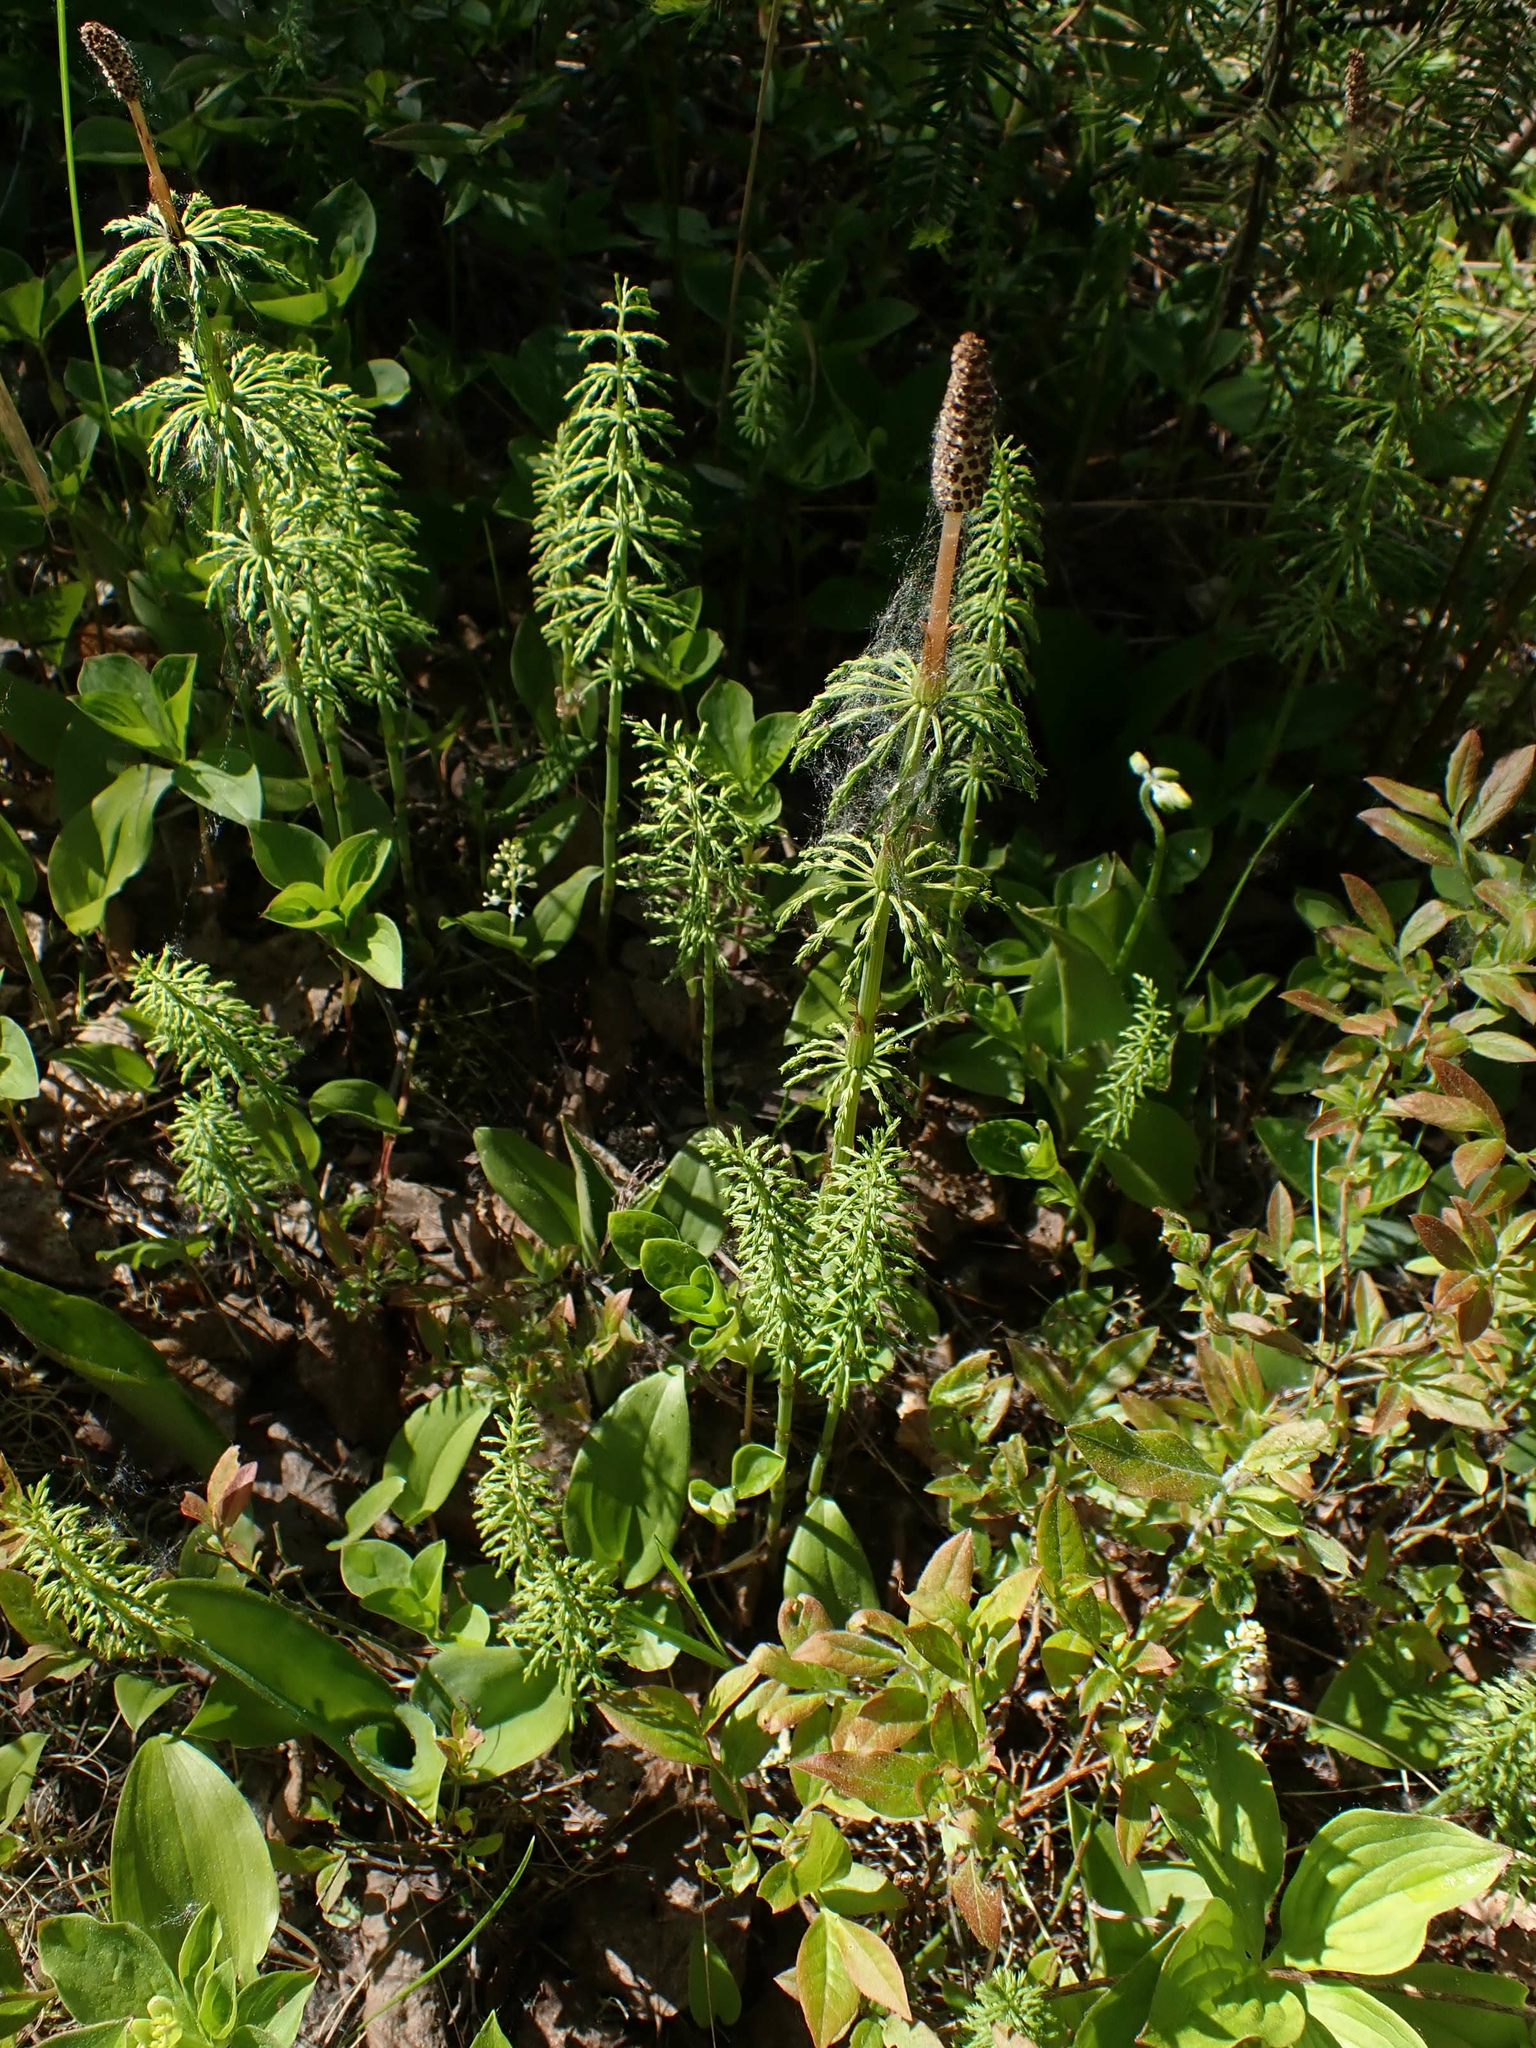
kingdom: Plantae
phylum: Tracheophyta
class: Polypodiopsida
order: Equisetales
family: Equisetaceae
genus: Equisetum
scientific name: Equisetum sylvaticum
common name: Wood horsetail
